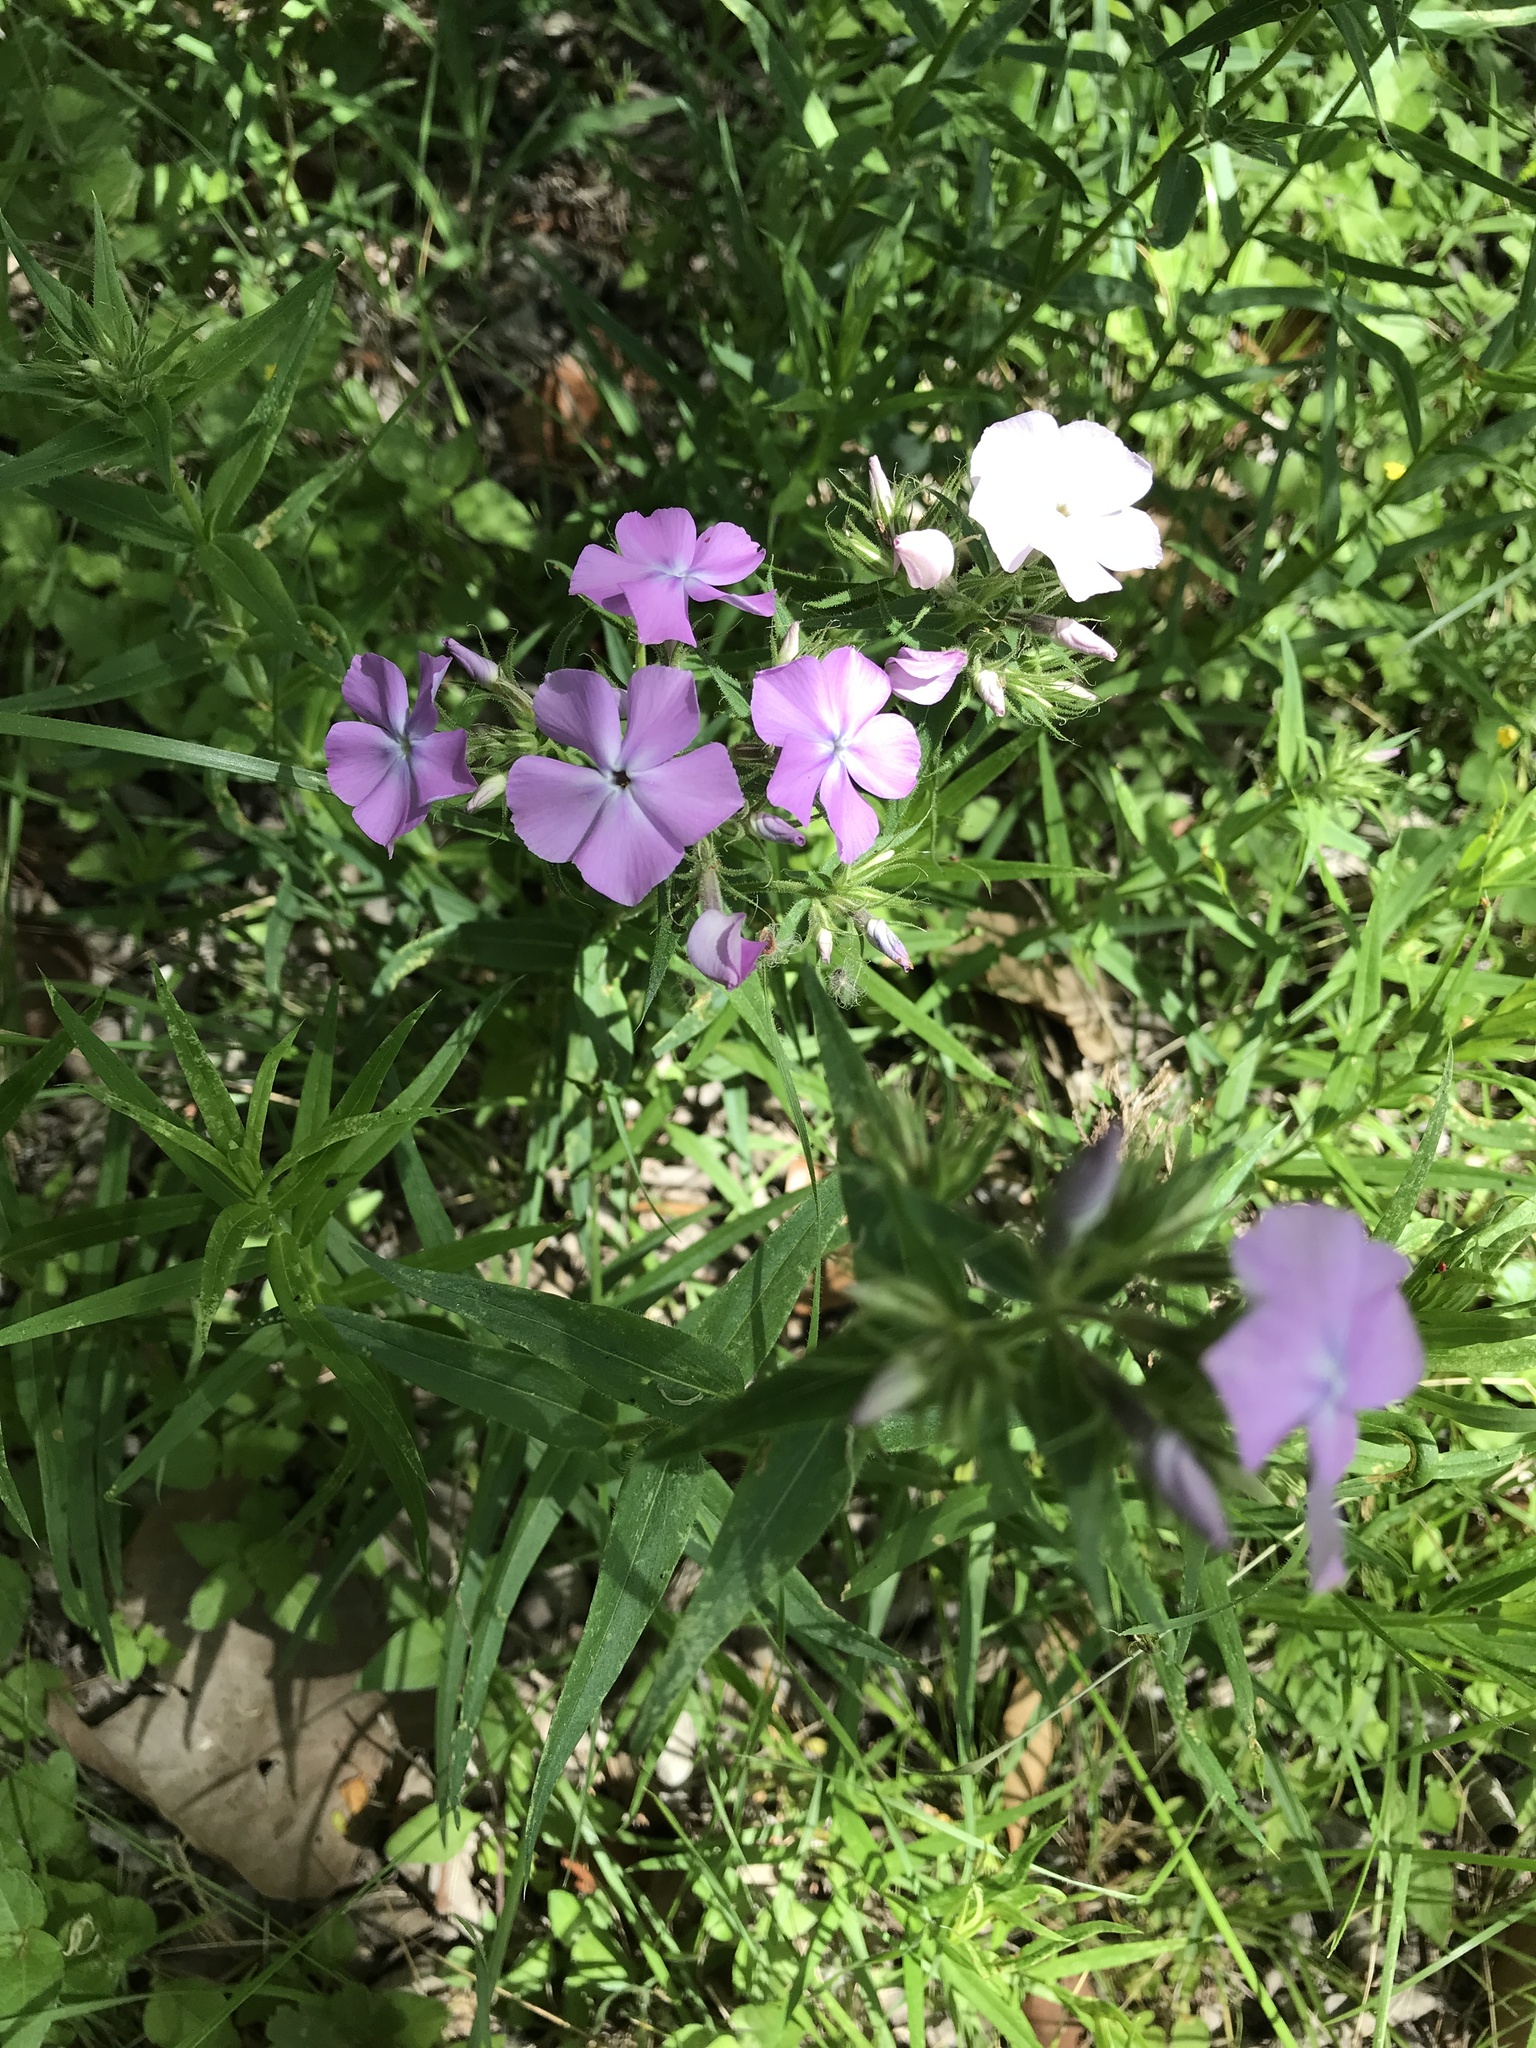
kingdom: Plantae
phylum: Tracheophyta
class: Magnoliopsida
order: Ericales
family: Polemoniaceae
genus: Phlox
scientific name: Phlox pilosa
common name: Prairie phlox
